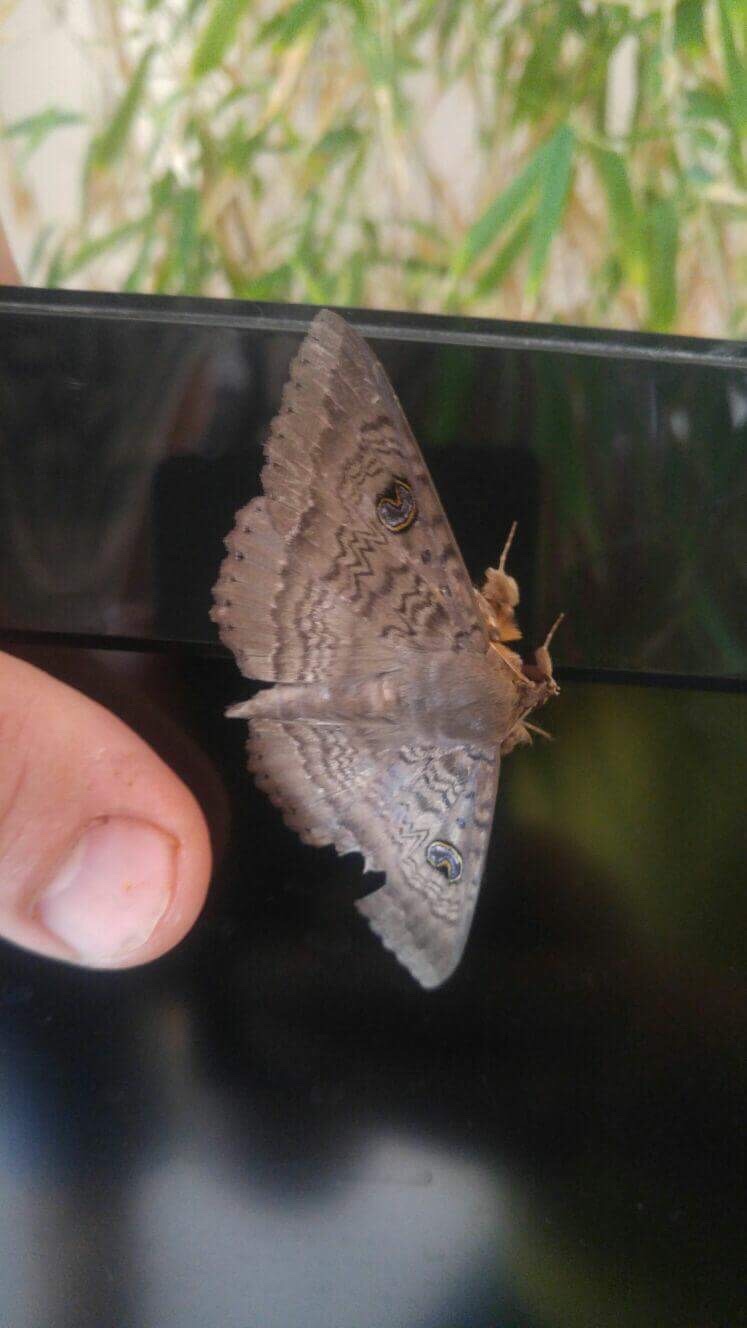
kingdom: Animalia
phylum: Arthropoda
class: Insecta
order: Lepidoptera
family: Erebidae
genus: Dasypodia
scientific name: Dasypodia cymatodes
